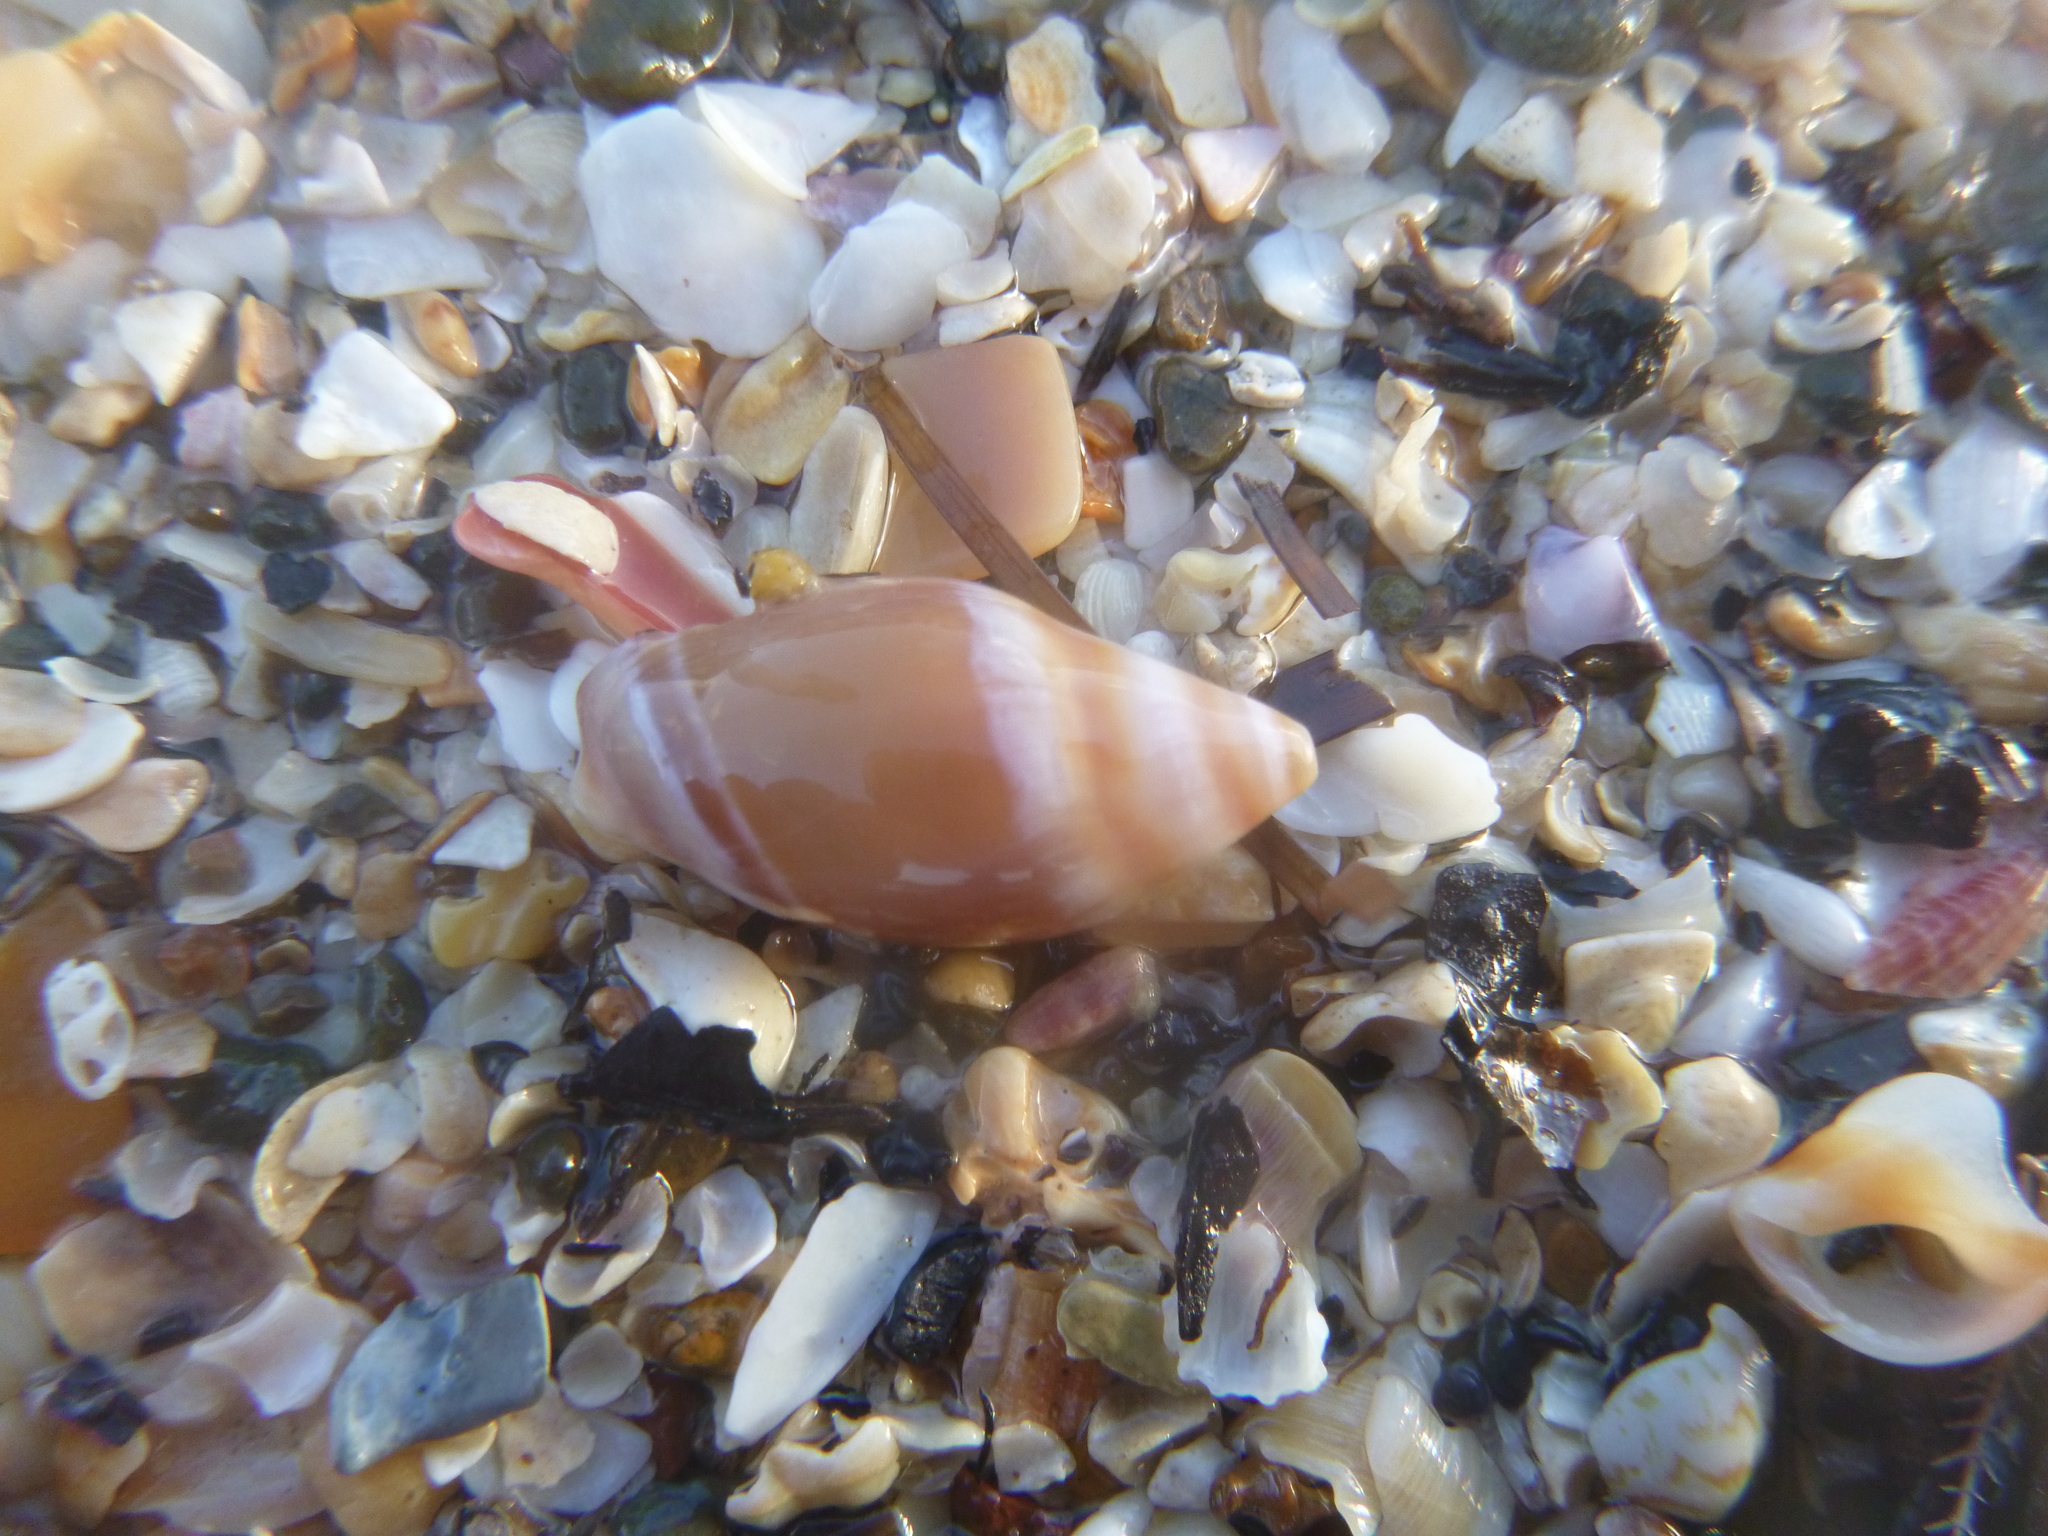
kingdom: Animalia
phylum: Mollusca
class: Gastropoda
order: Neogastropoda
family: Ancillariidae
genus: Amalda
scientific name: Amalda australis
